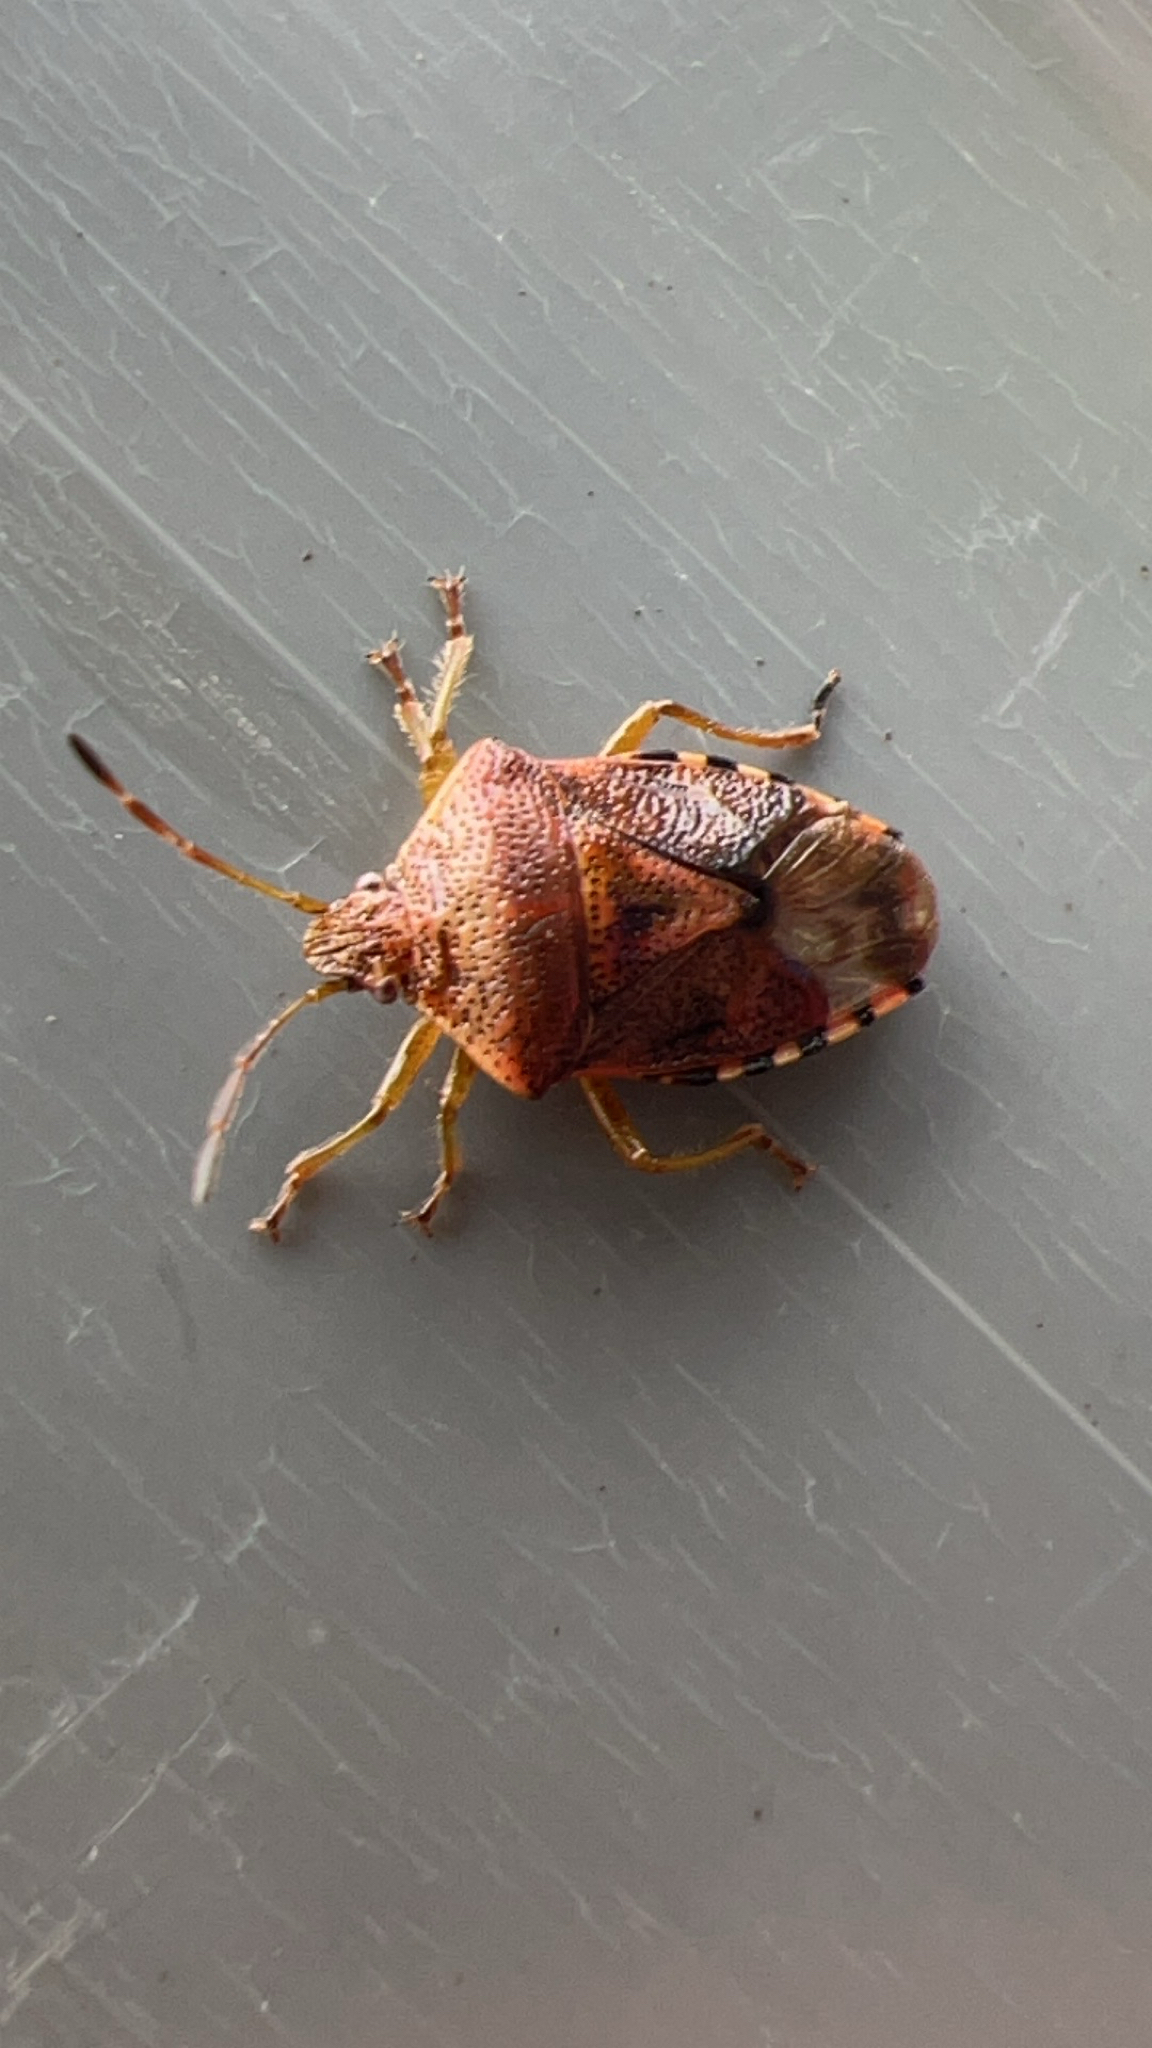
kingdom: Animalia
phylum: Arthropoda
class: Insecta
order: Hemiptera
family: Acanthosomatidae
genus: Elasmucha
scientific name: Elasmucha grisea
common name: Parent bug
